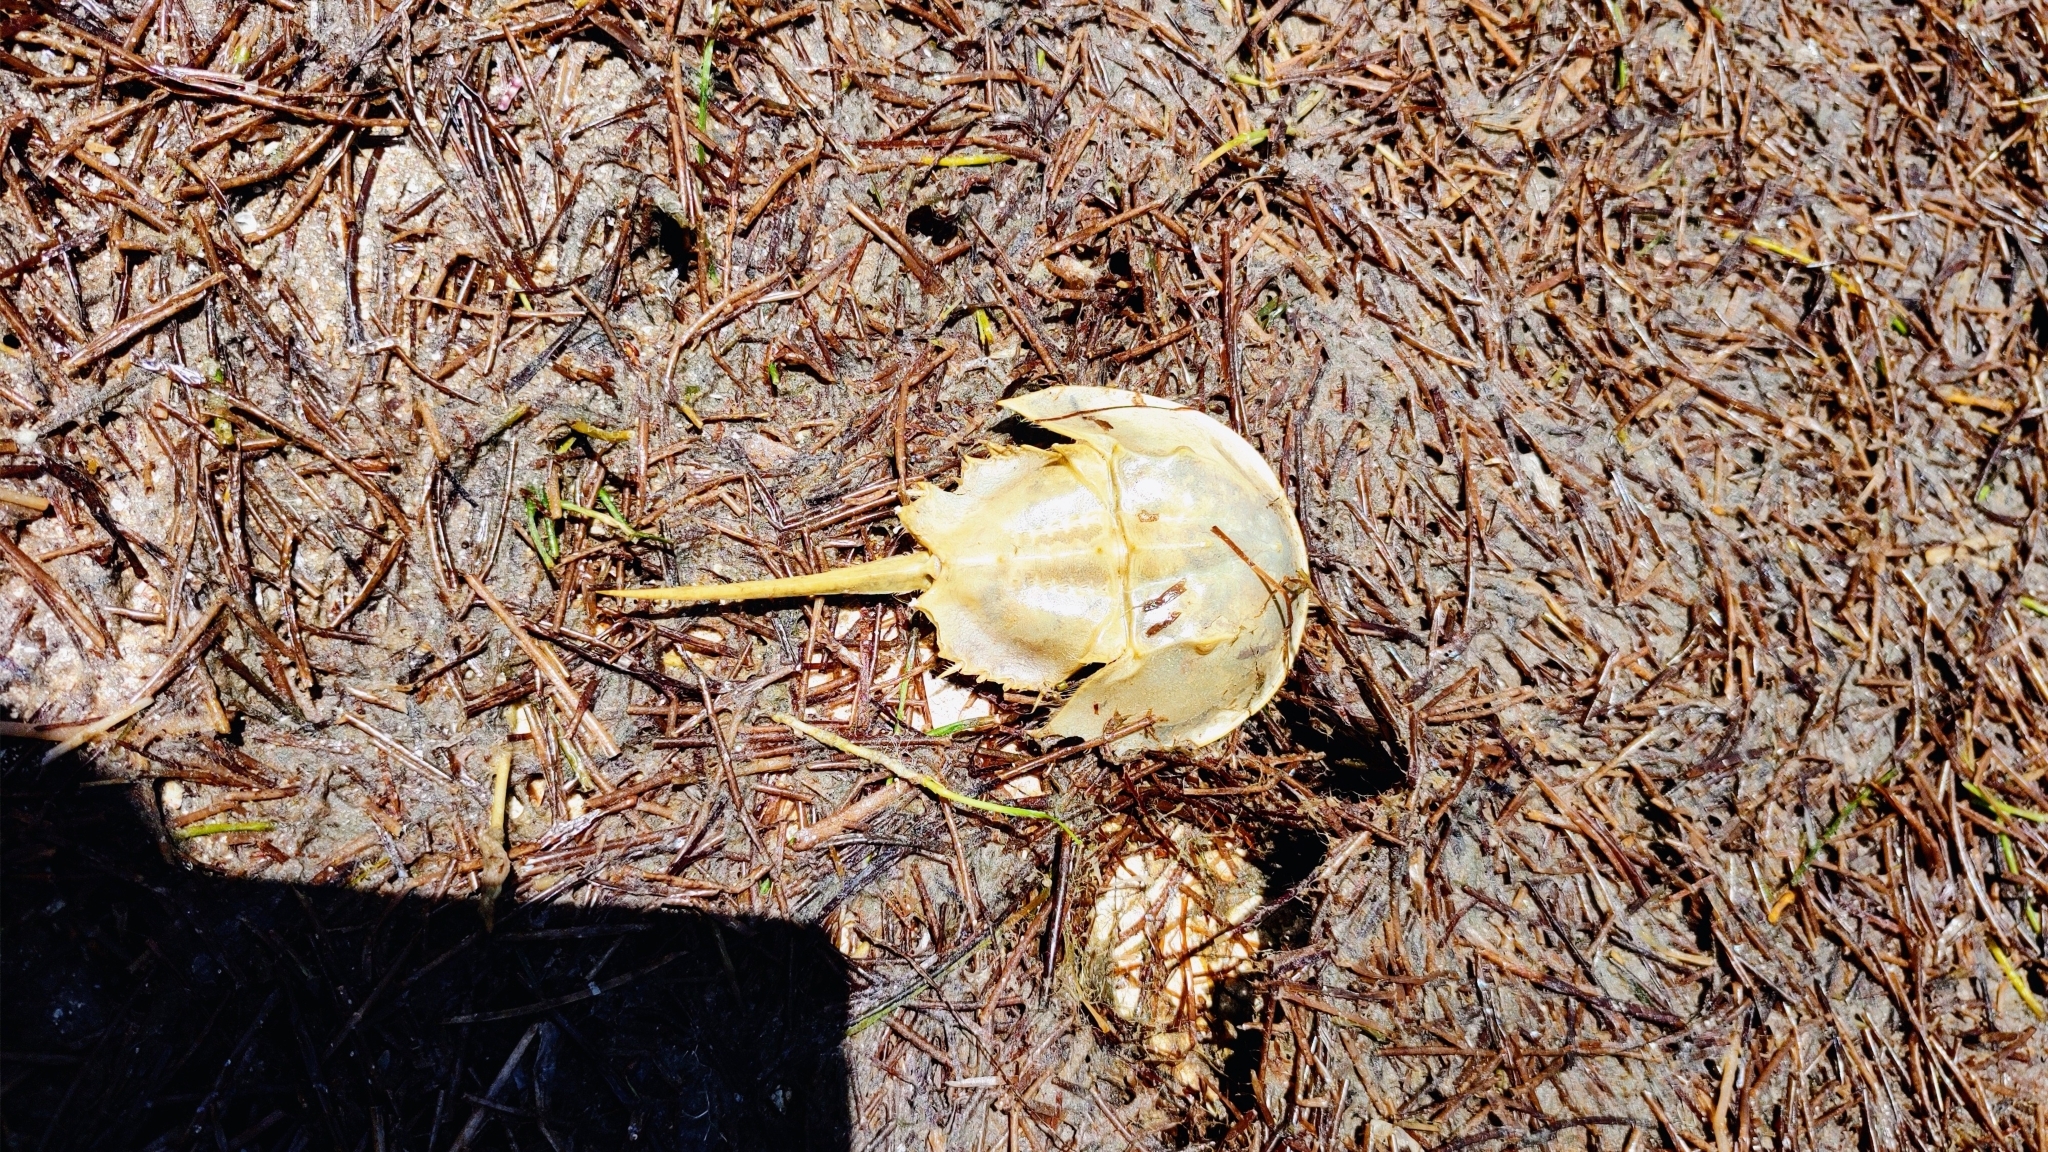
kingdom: Animalia
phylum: Arthropoda
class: Merostomata
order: Xiphosurida
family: Limulidae
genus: Limulus
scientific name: Limulus polyphemus
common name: Horseshoe crab
